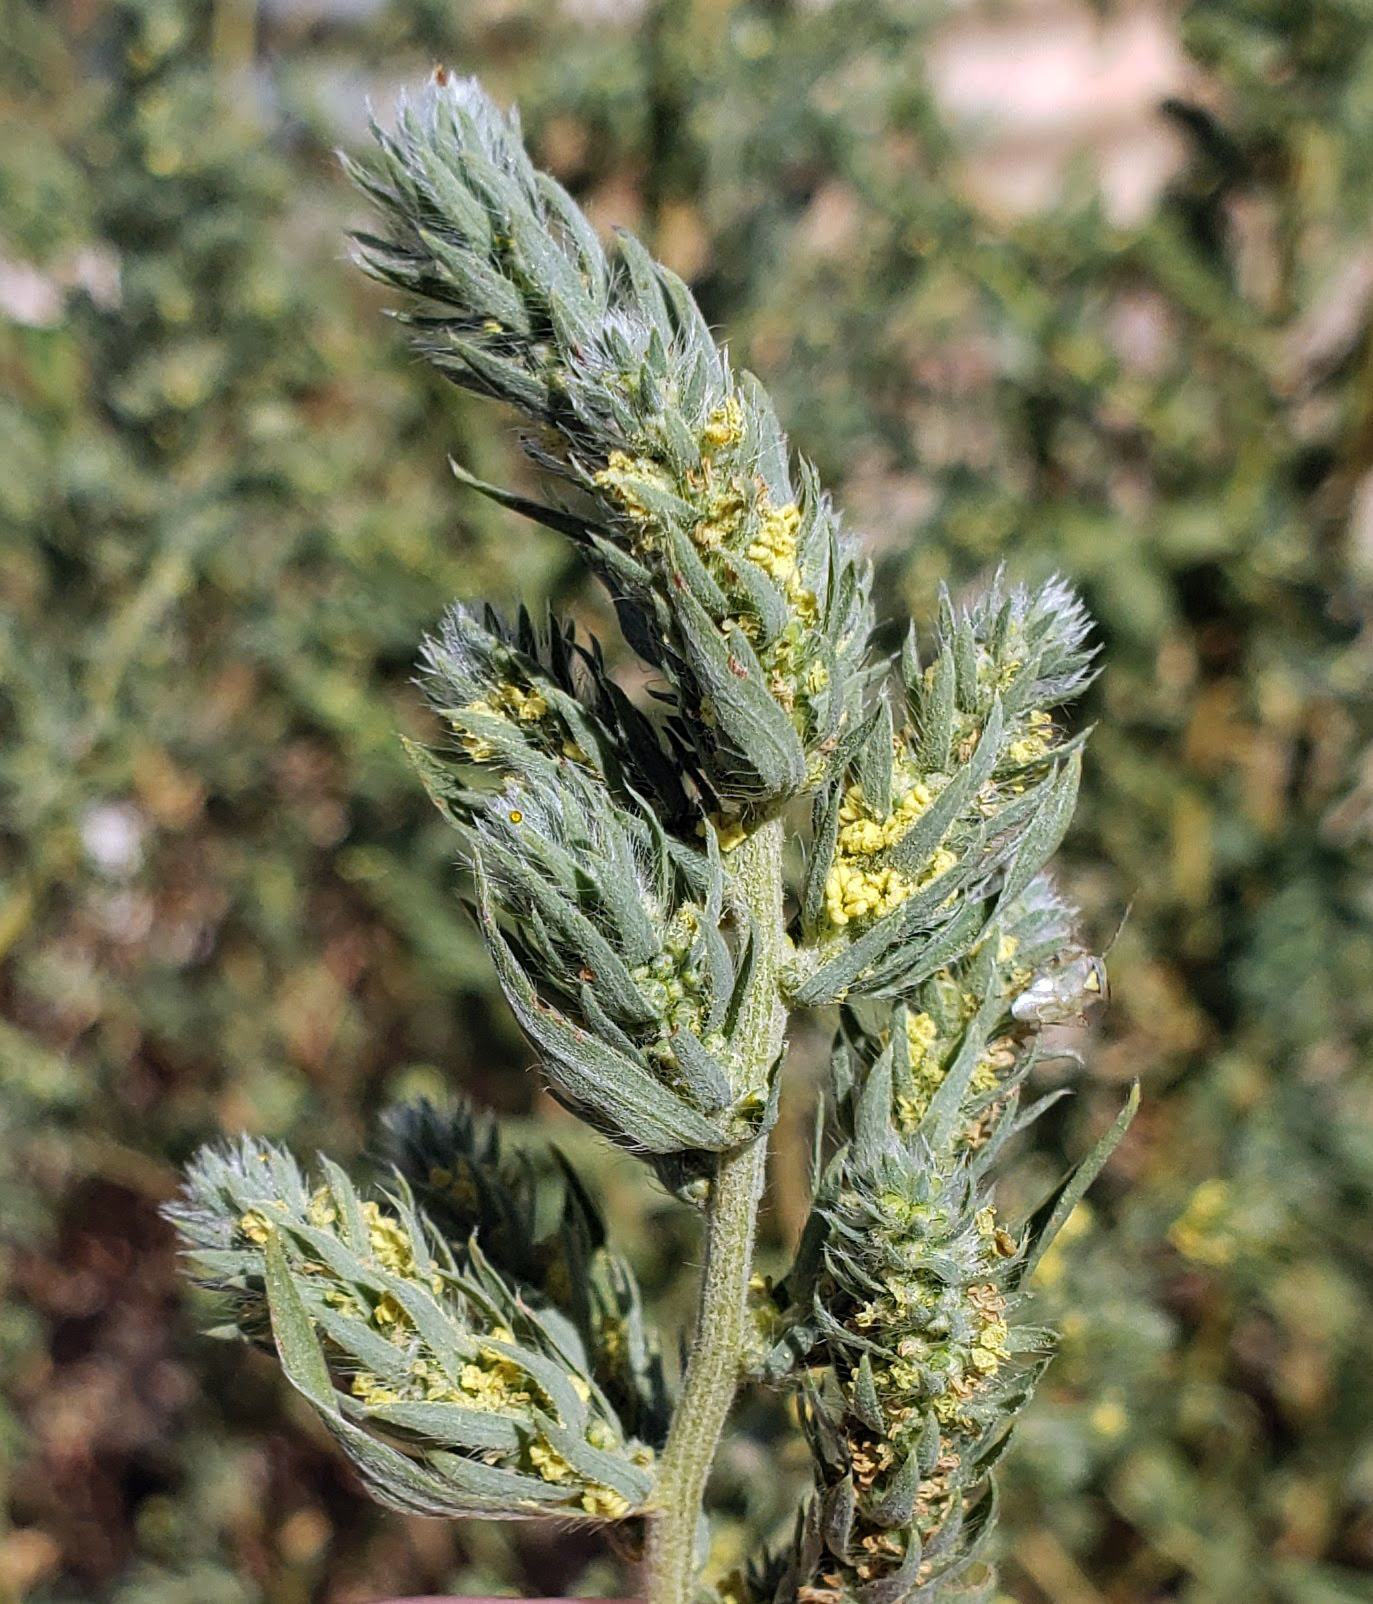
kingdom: Plantae
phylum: Tracheophyta
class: Magnoliopsida
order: Caryophyllales
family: Amaranthaceae
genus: Bassia
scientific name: Bassia scoparia
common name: Belvedere
